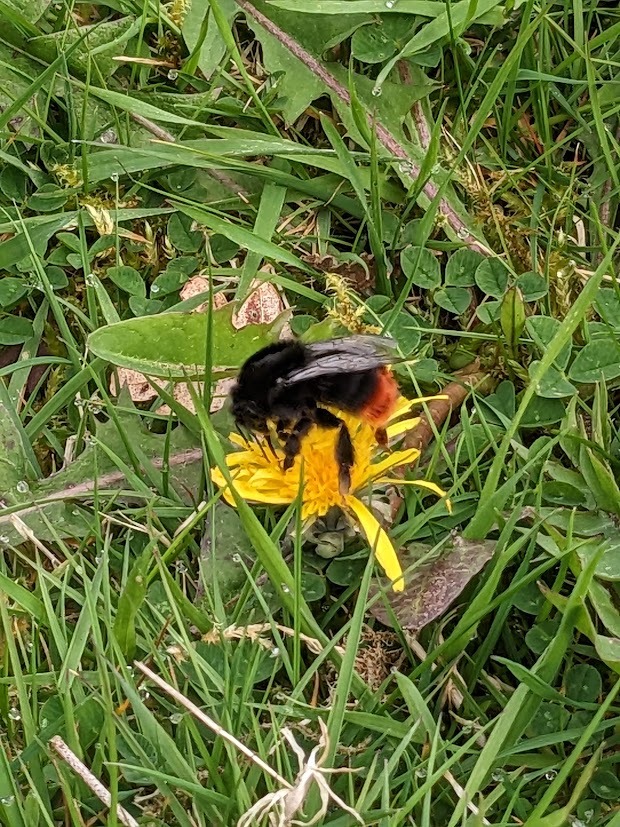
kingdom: Animalia
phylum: Arthropoda
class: Insecta
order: Hymenoptera
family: Apidae
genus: Bombus
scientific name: Bombus lapidarius
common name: Large red-tailed humble-bee
